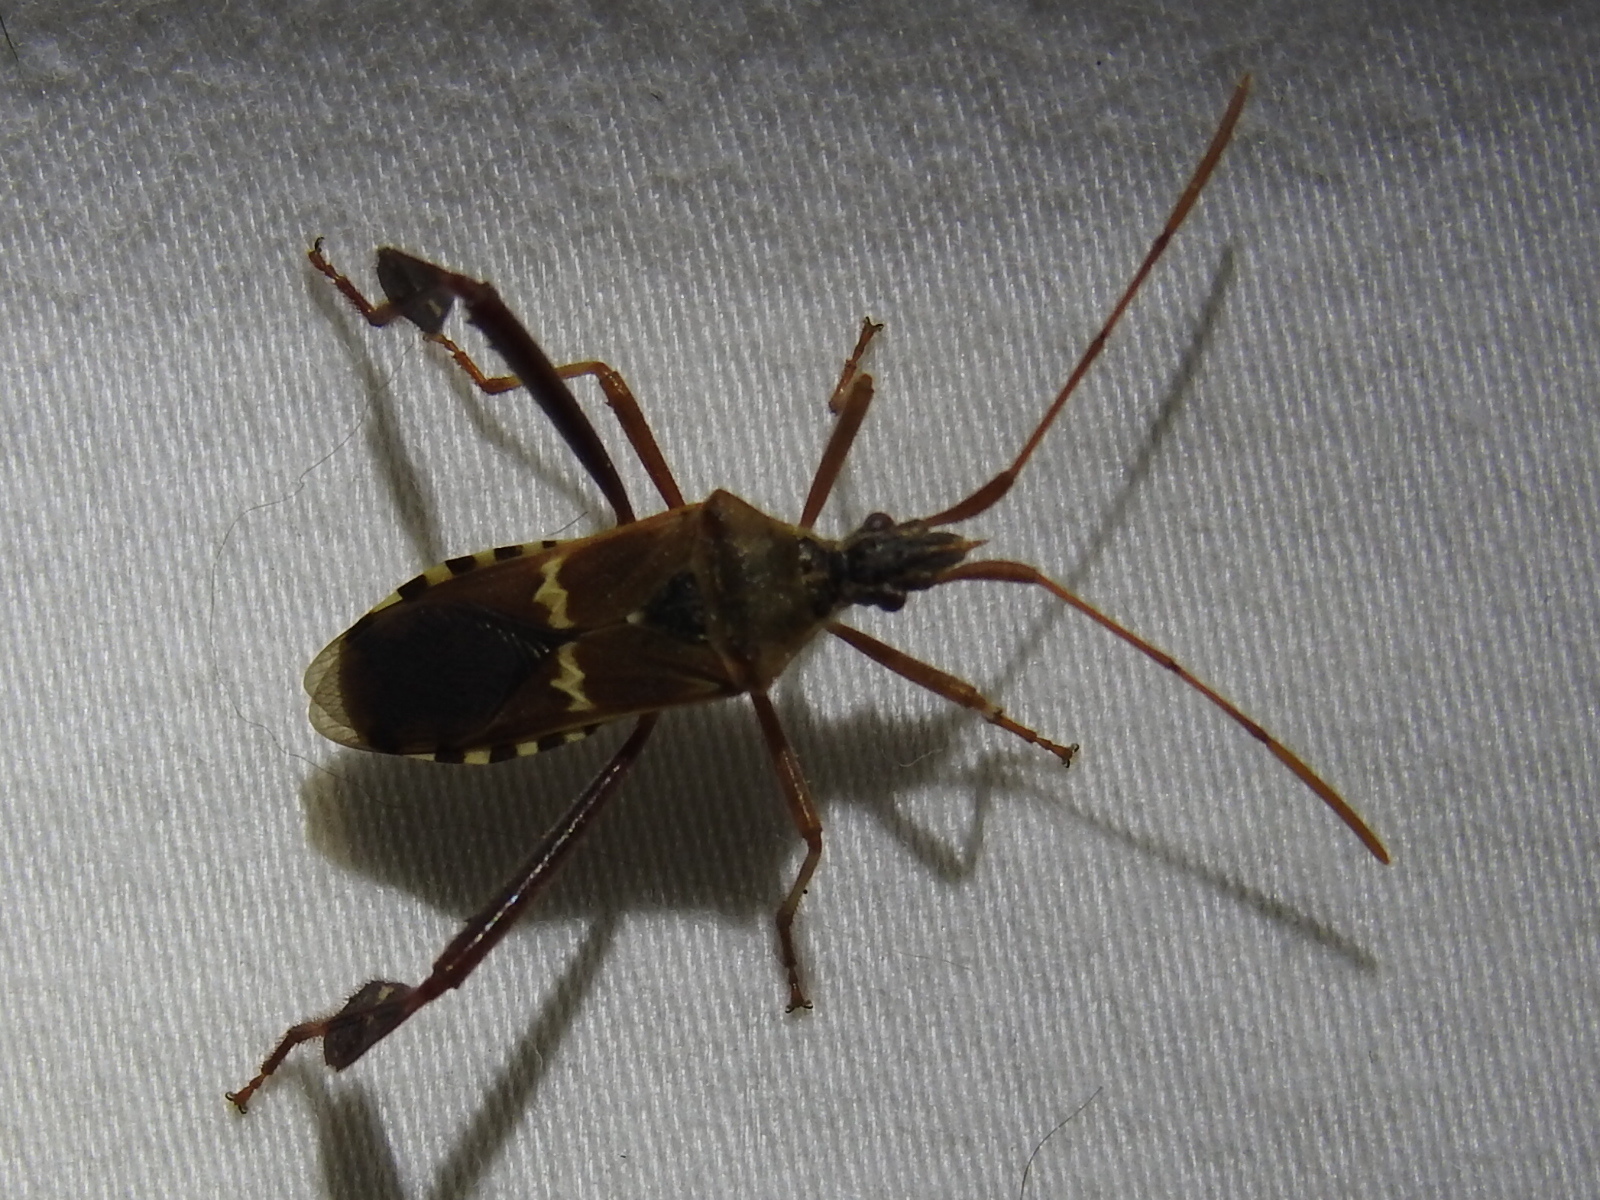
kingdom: Animalia
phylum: Arthropoda
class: Insecta
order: Hemiptera
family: Coreidae
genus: Leptoglossus
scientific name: Leptoglossus clypealis
